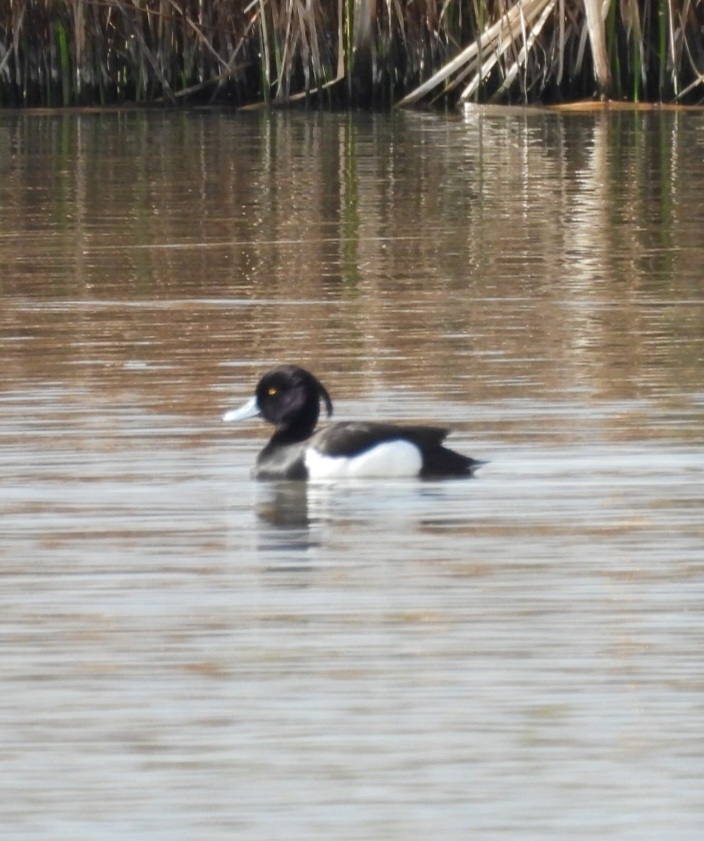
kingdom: Animalia
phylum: Chordata
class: Aves
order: Anseriformes
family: Anatidae
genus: Aythya
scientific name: Aythya fuligula
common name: Tufted duck
